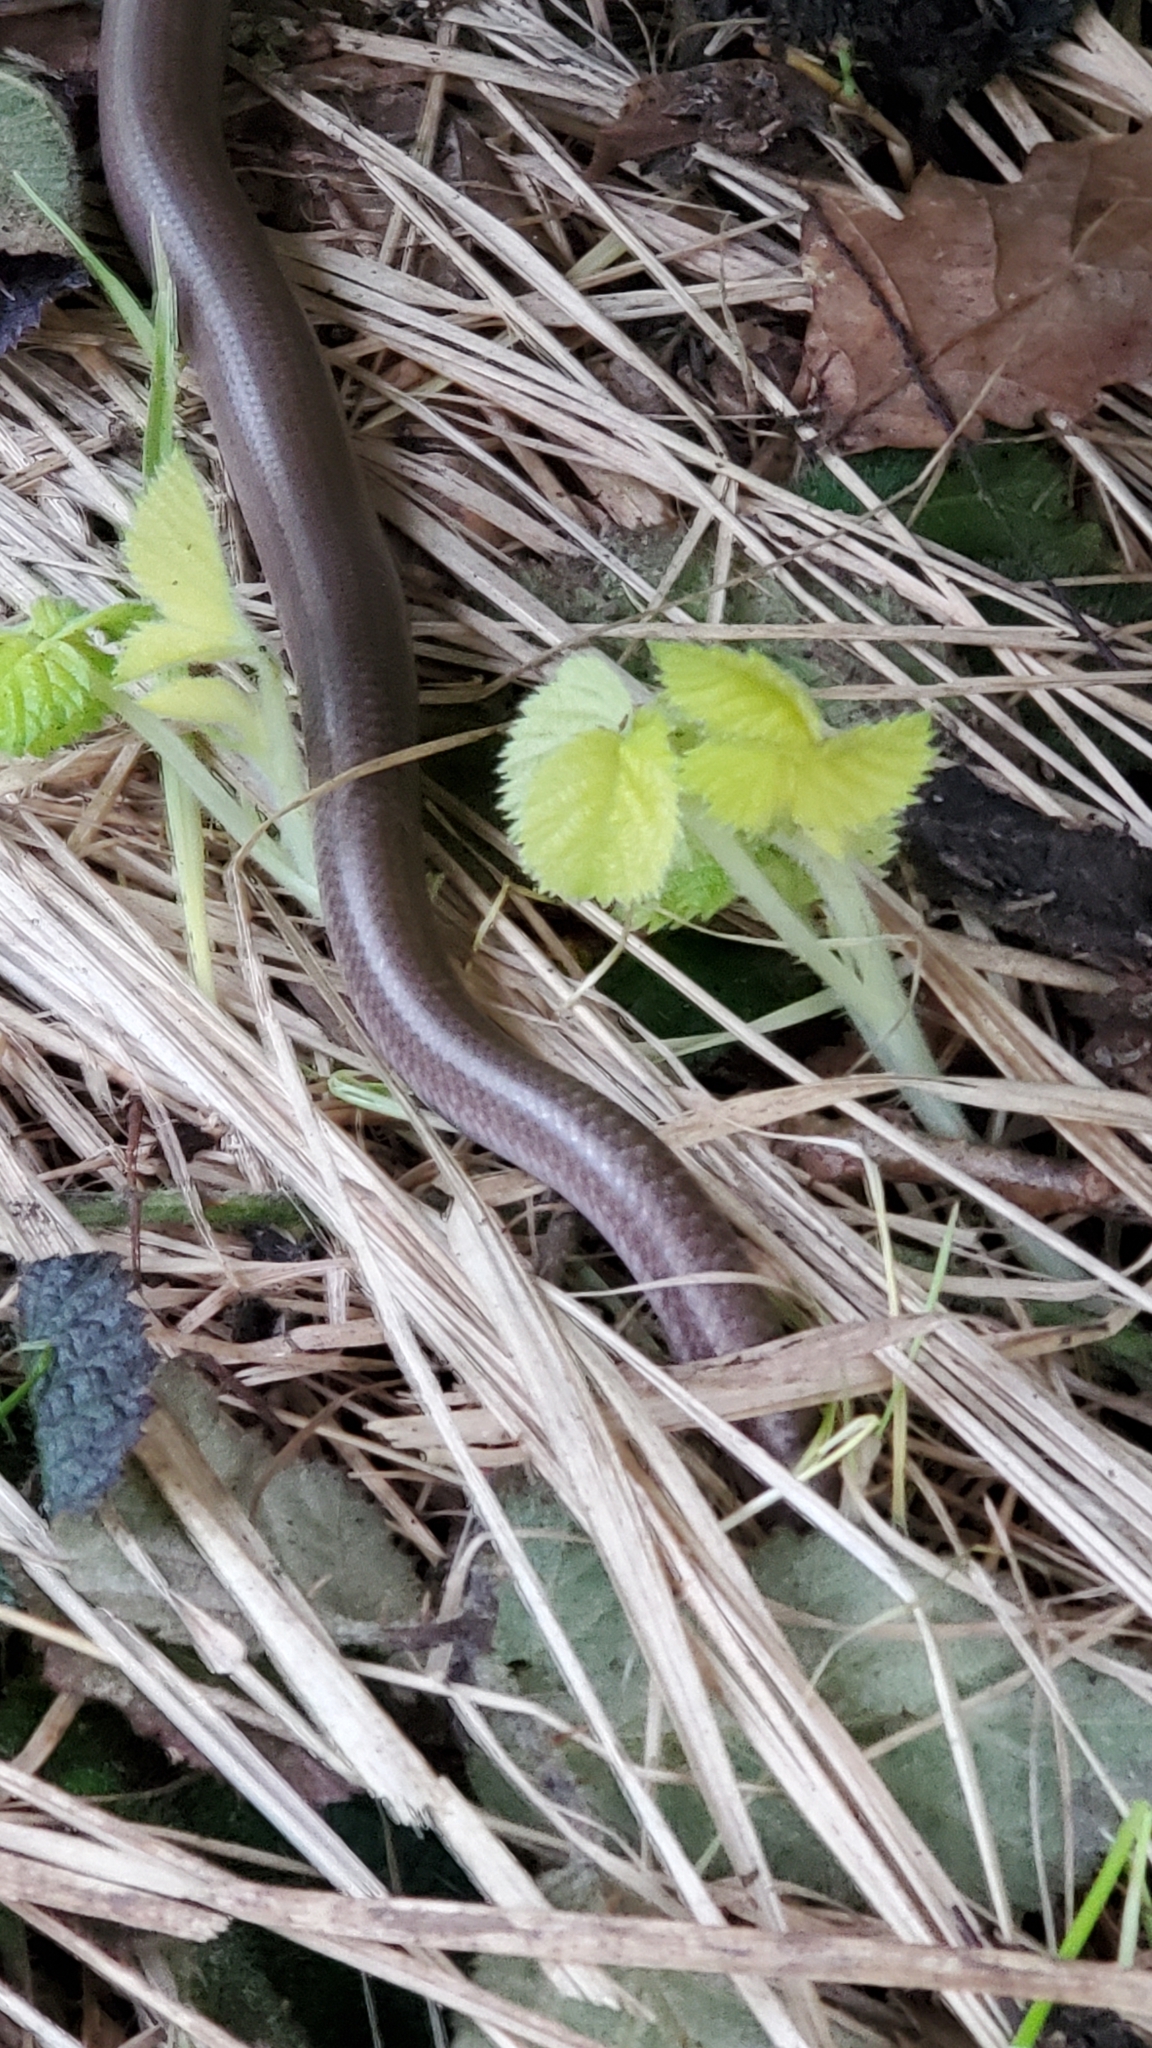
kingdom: Animalia
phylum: Chordata
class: Squamata
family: Anguidae
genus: Anguis
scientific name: Anguis fragilis
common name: Slow worm
